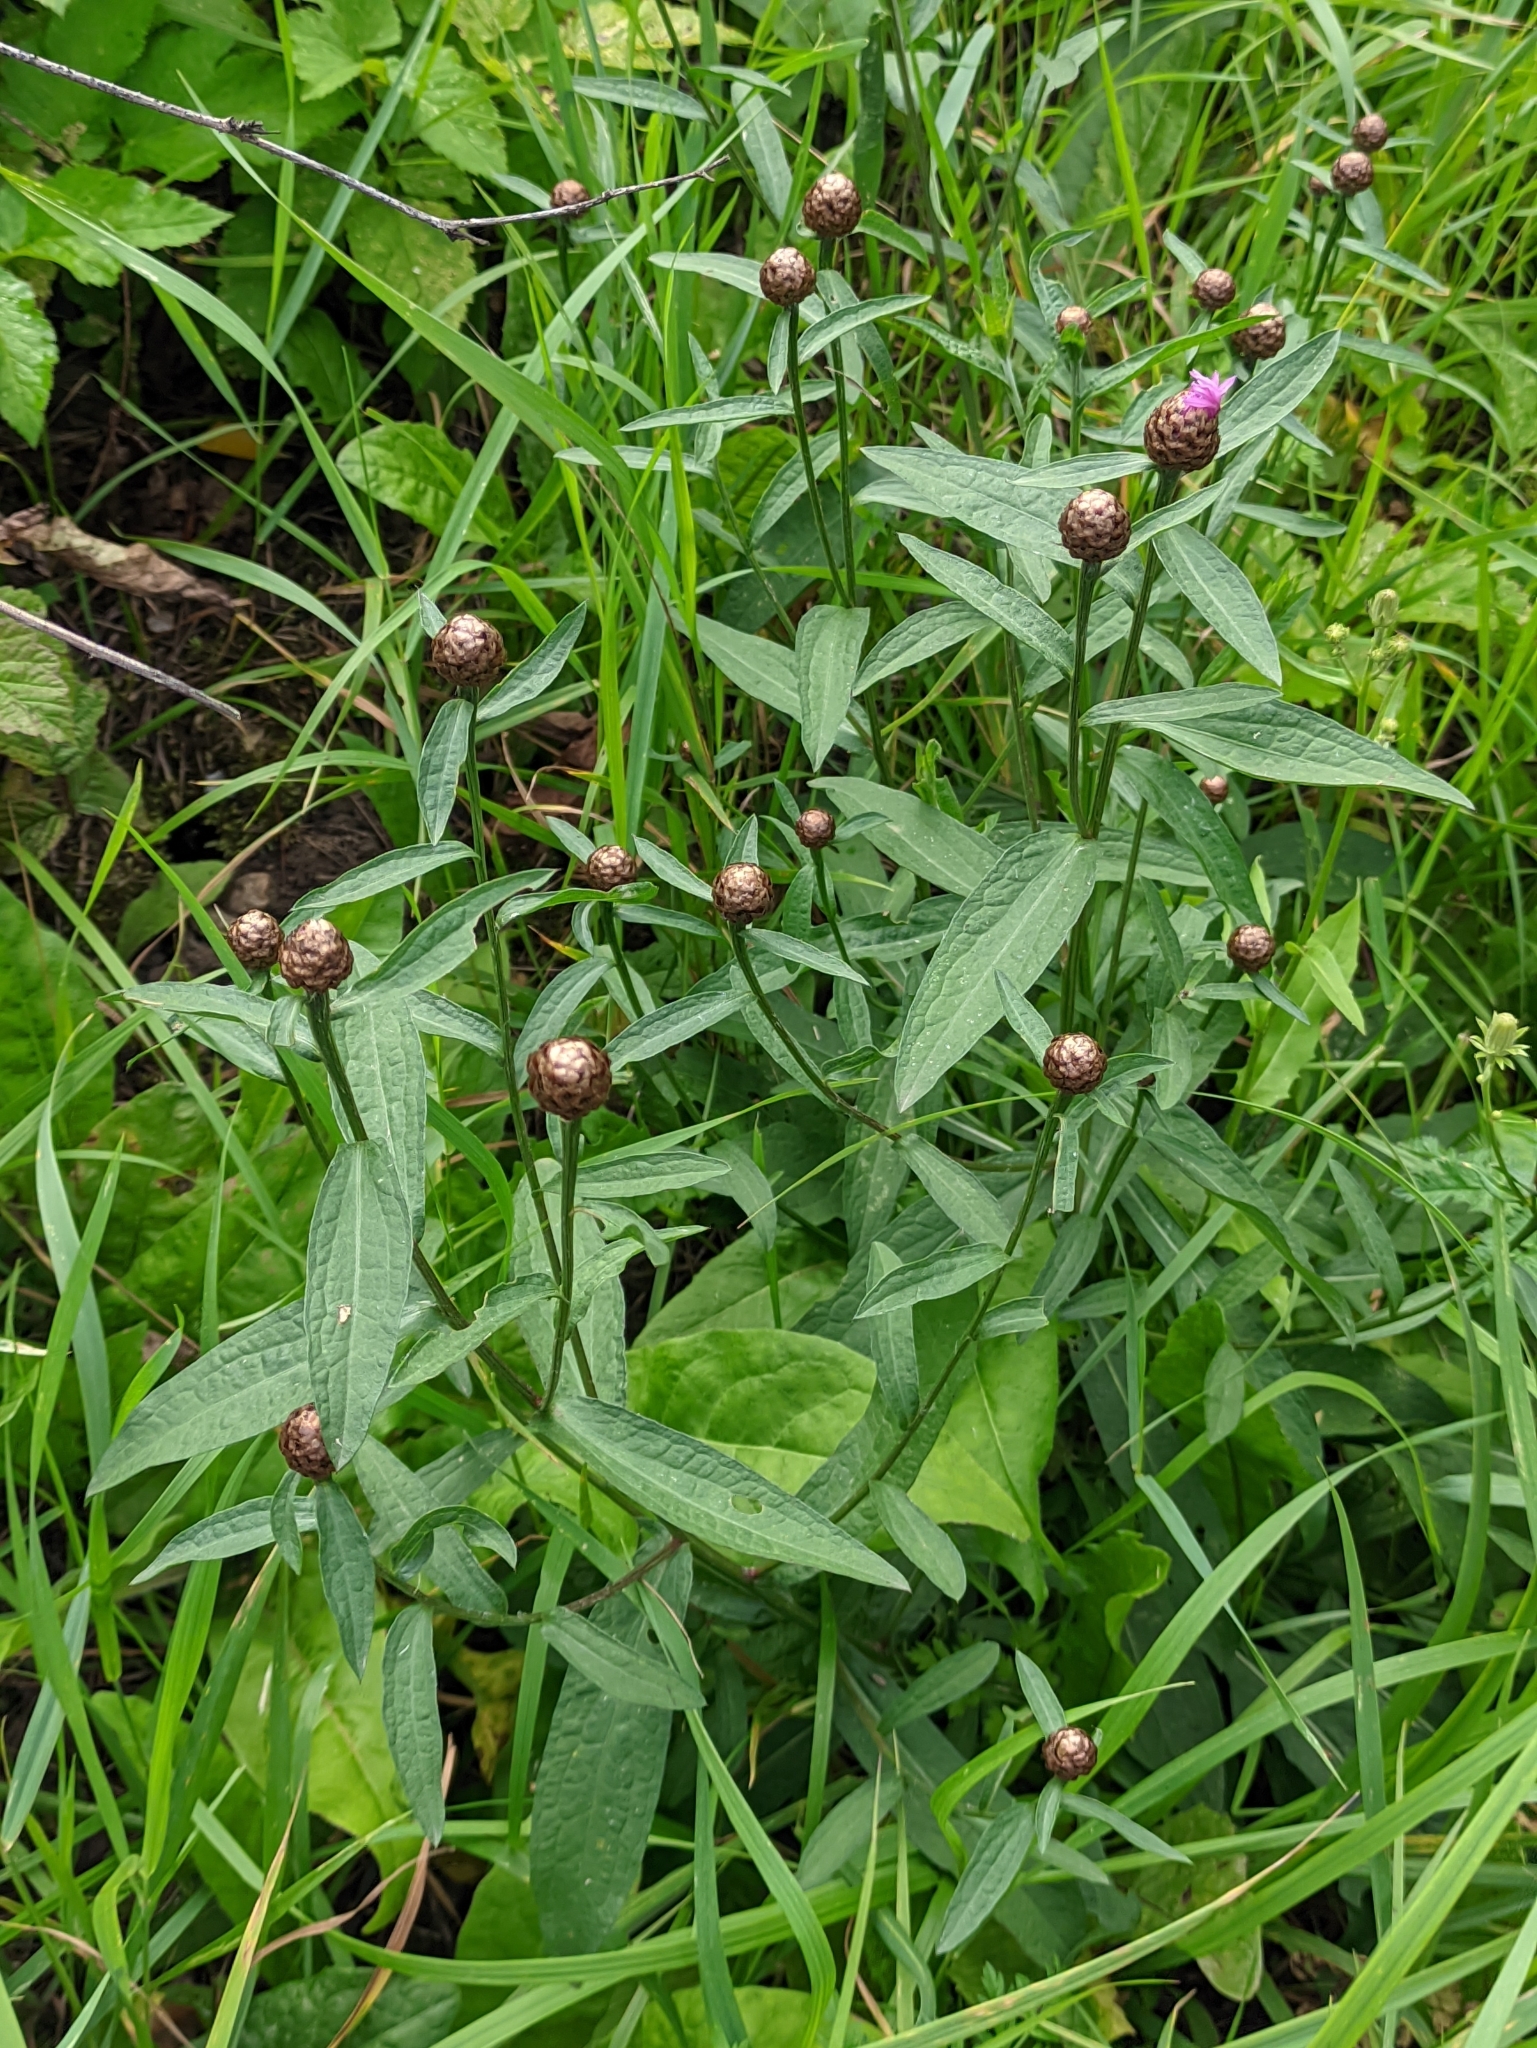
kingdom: Plantae
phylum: Tracheophyta
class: Magnoliopsida
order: Asterales
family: Asteraceae
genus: Centaurea
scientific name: Centaurea jacea
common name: Brown knapweed
